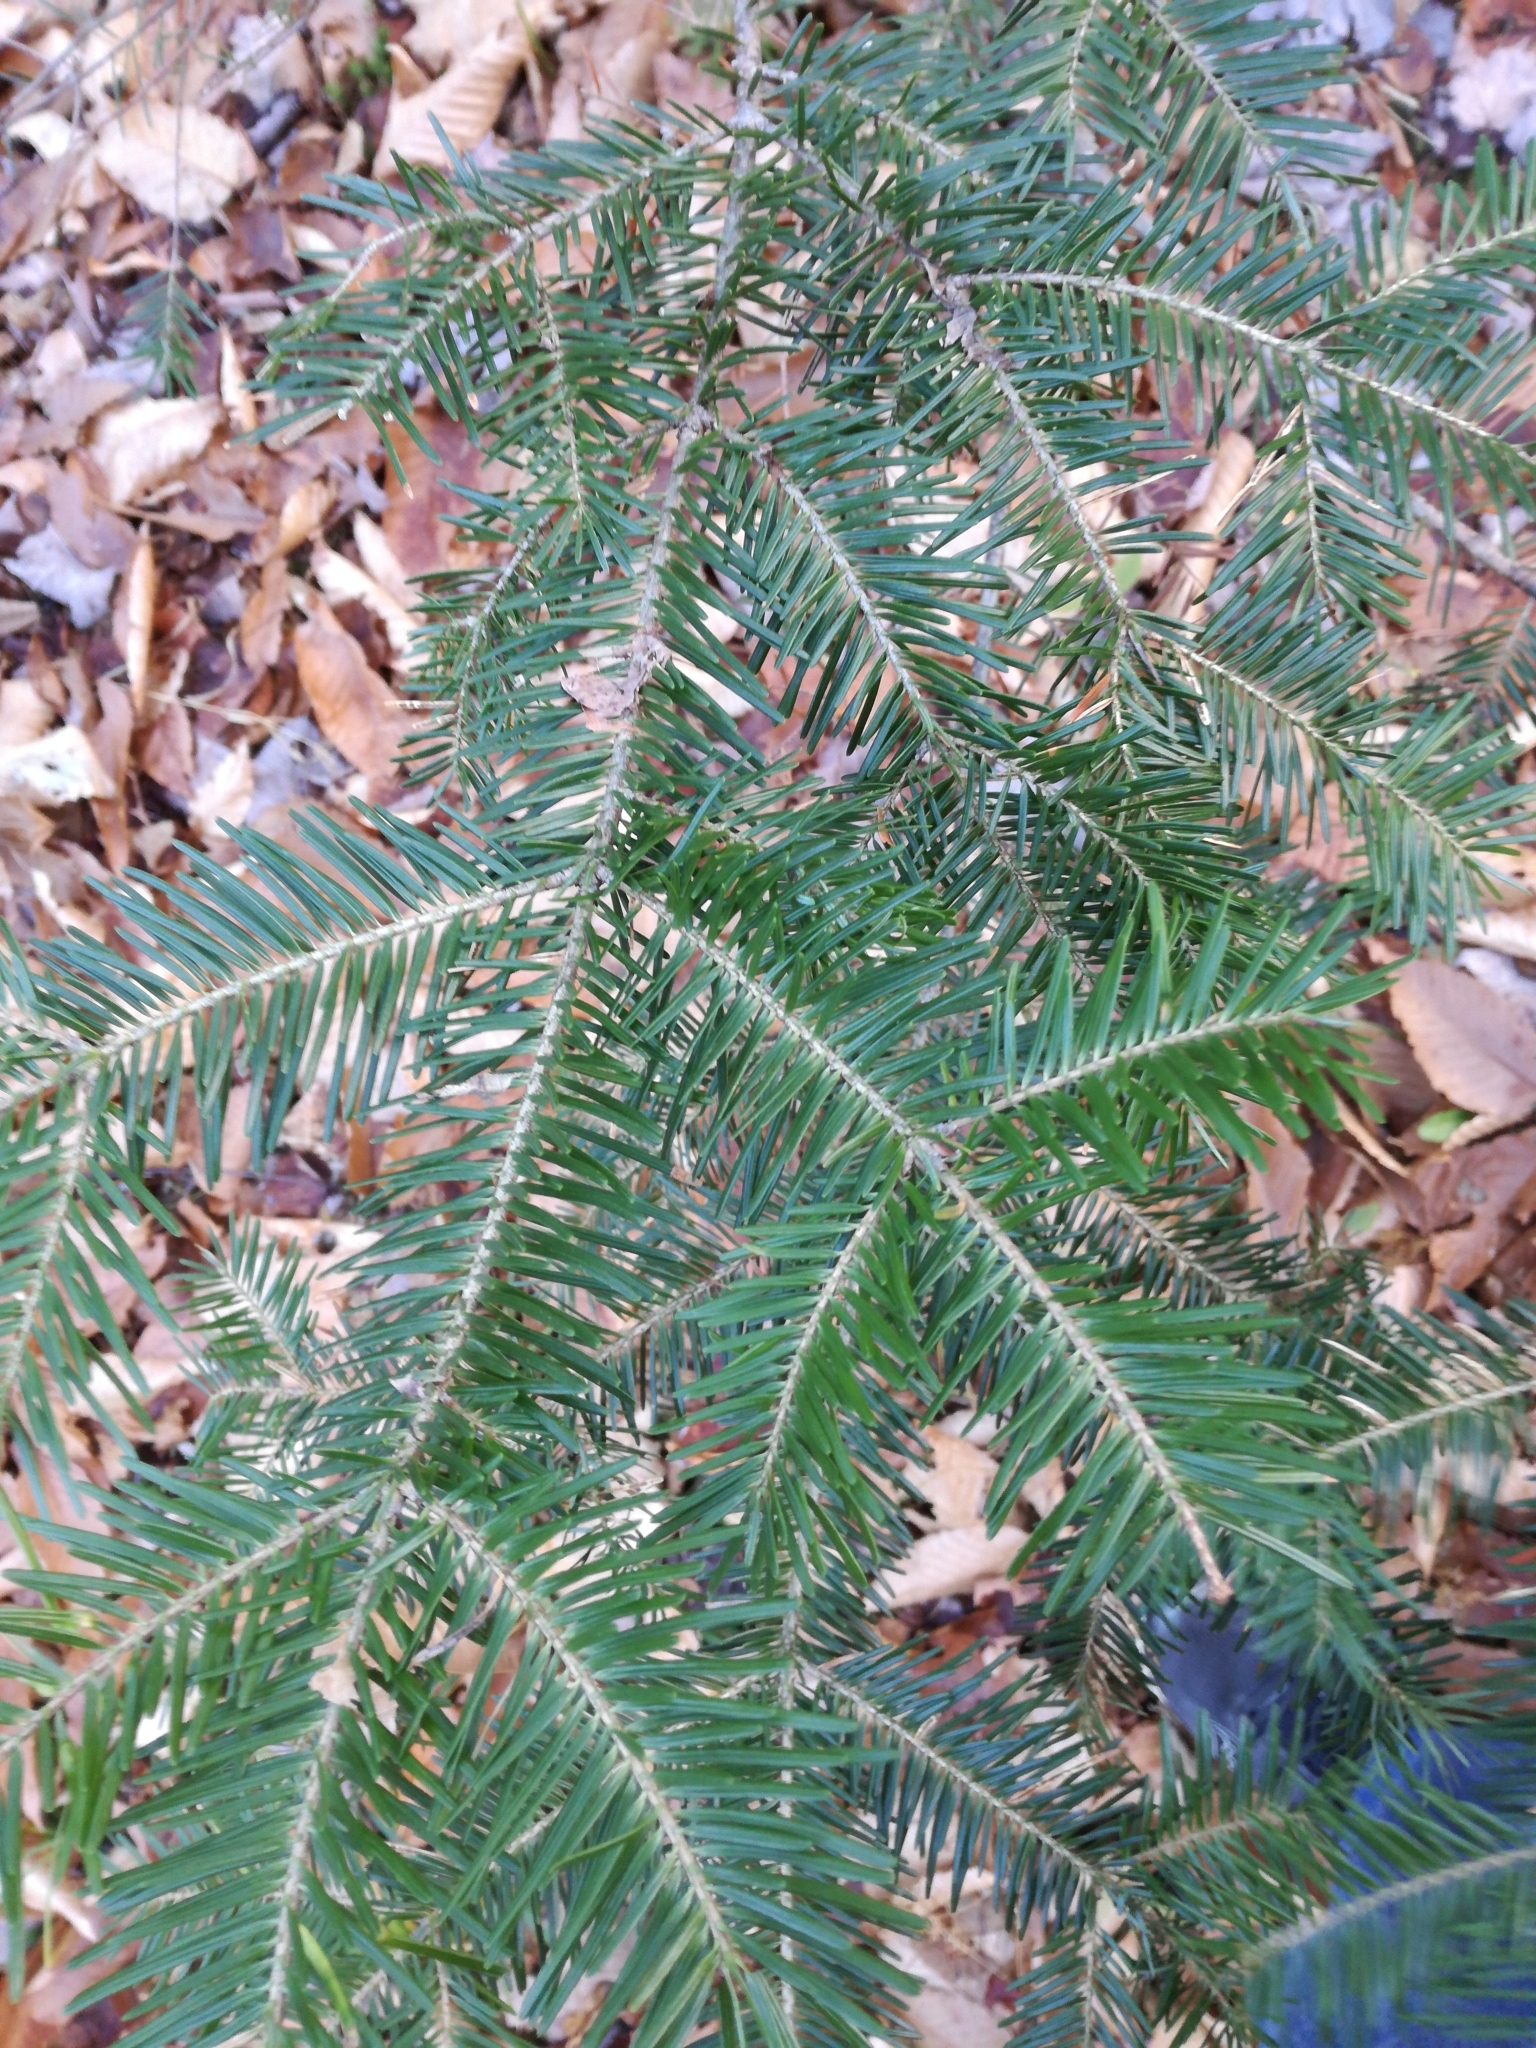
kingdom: Plantae
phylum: Tracheophyta
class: Pinopsida
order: Pinales
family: Pinaceae
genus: Abies
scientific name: Abies balsamea
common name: Balsam fir
